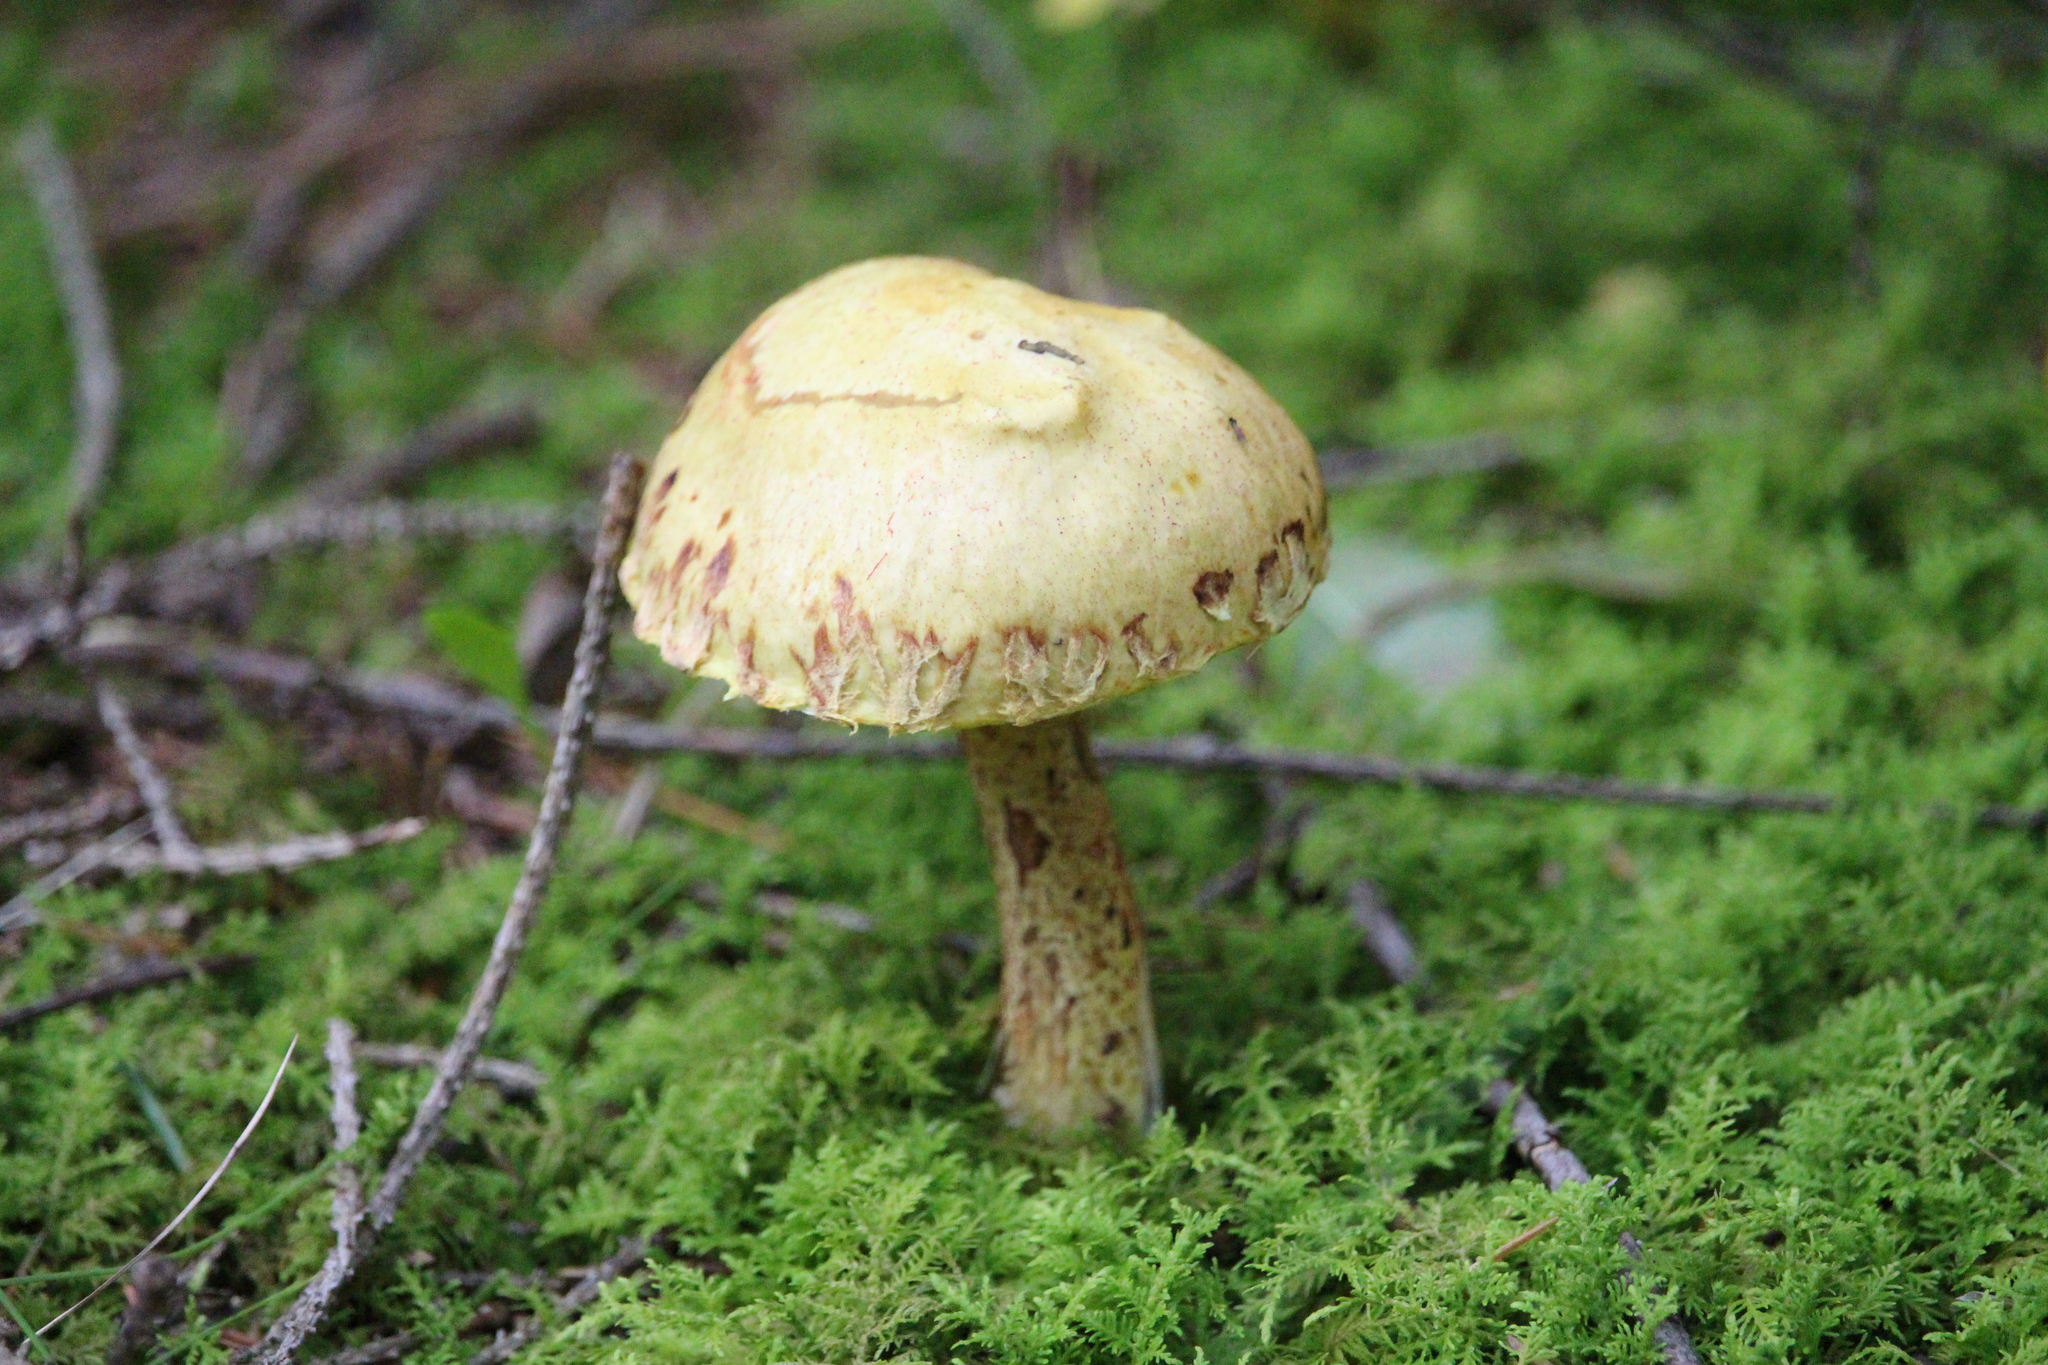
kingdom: Fungi
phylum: Basidiomycota
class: Agaricomycetes
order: Boletales
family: Suillaceae
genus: Suillus
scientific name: Suillus americanus
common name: Chicken fat mushroom
